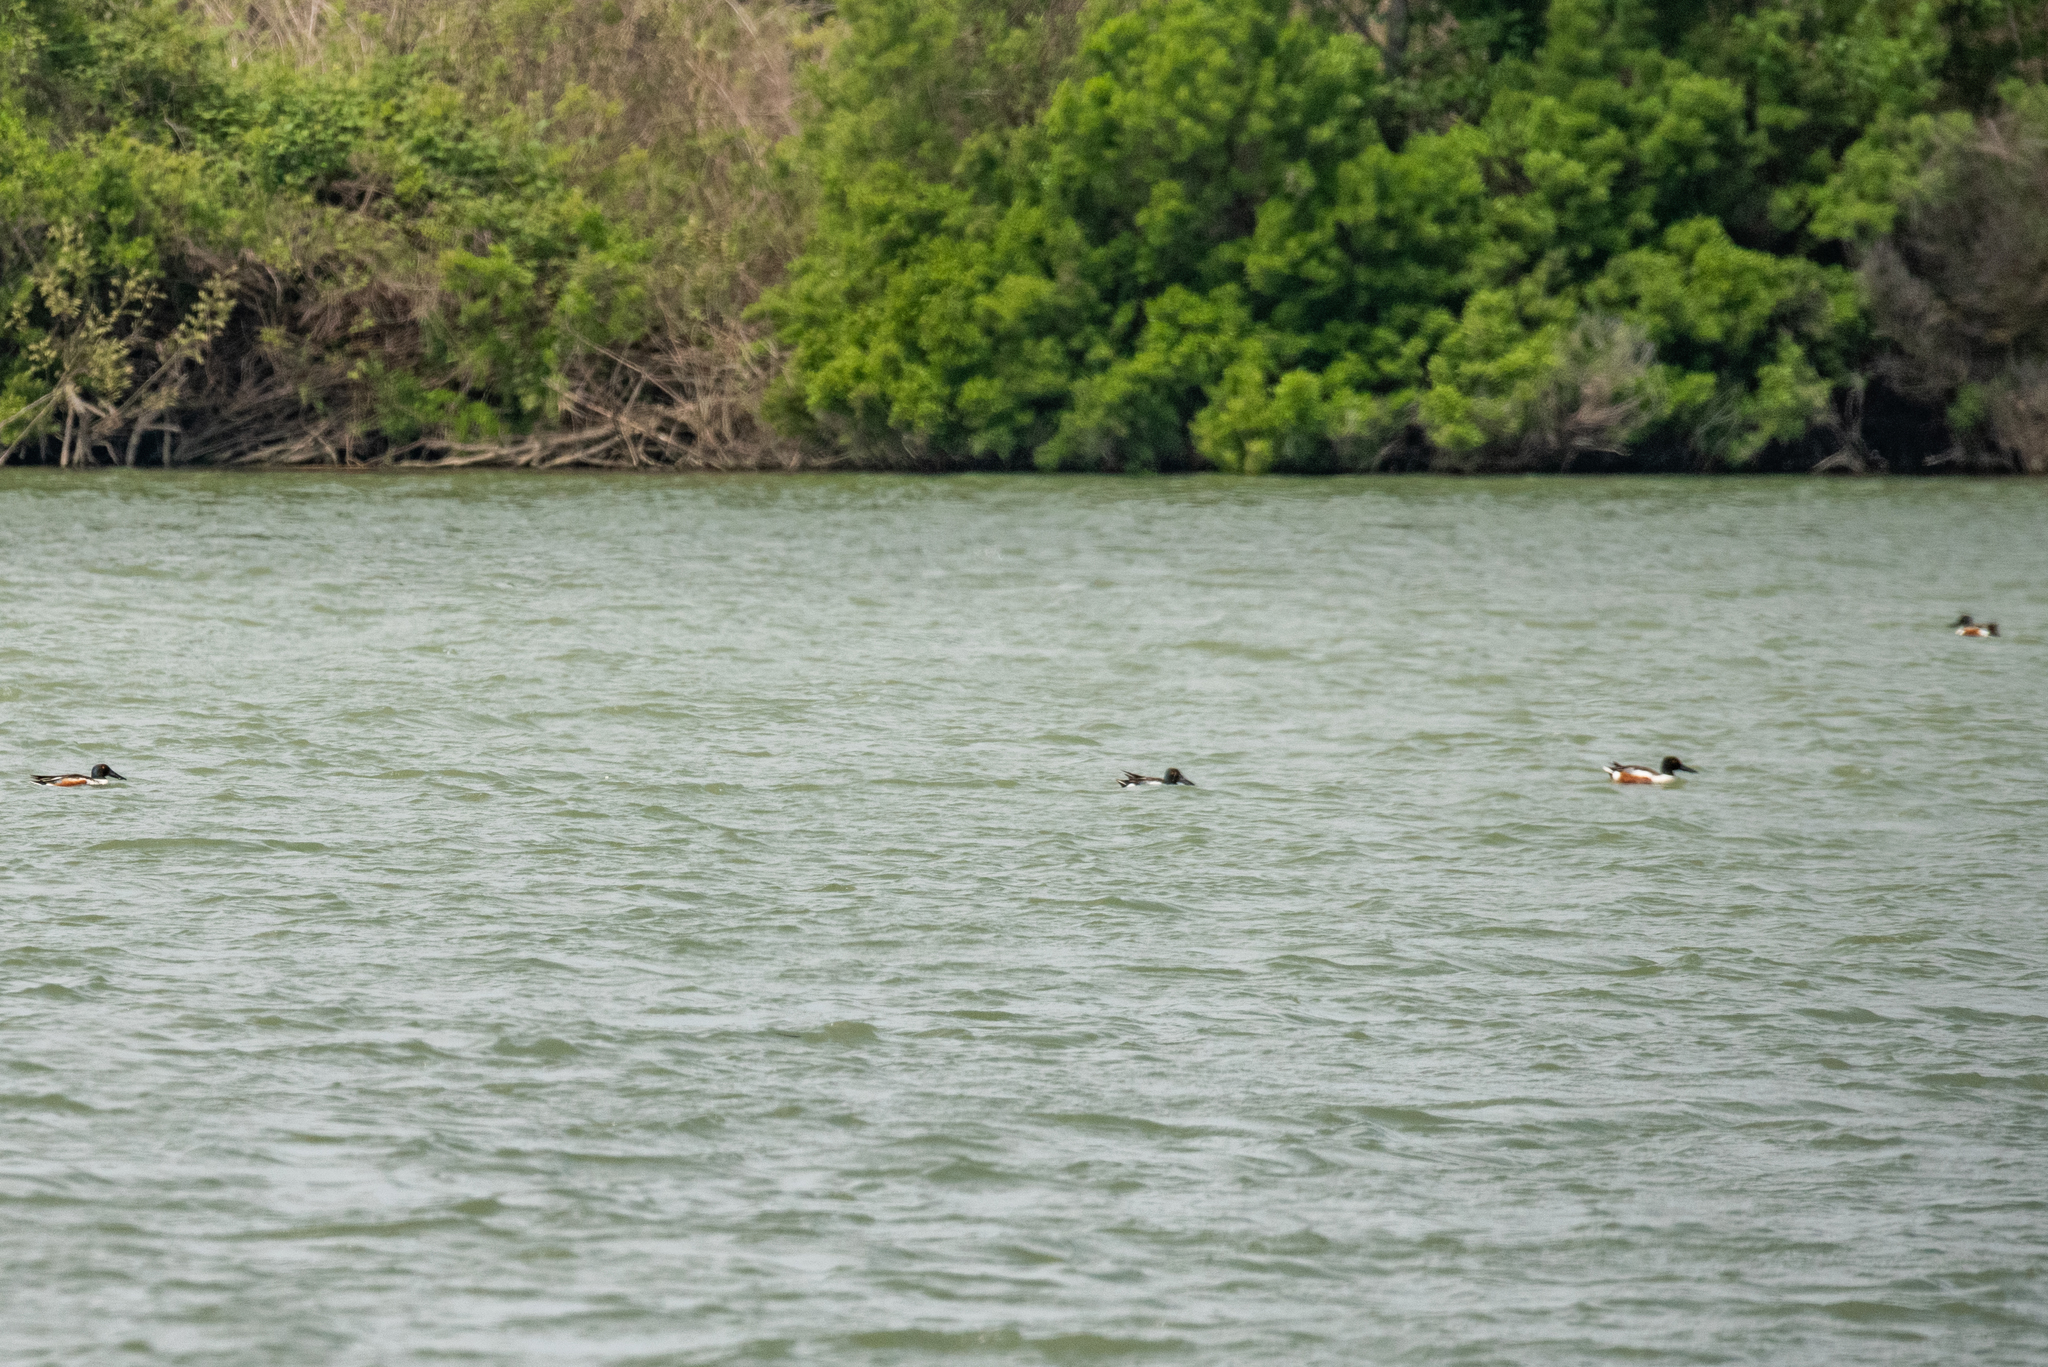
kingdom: Animalia
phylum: Chordata
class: Aves
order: Anseriformes
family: Anatidae
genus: Spatula
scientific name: Spatula clypeata
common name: Northern shoveler
